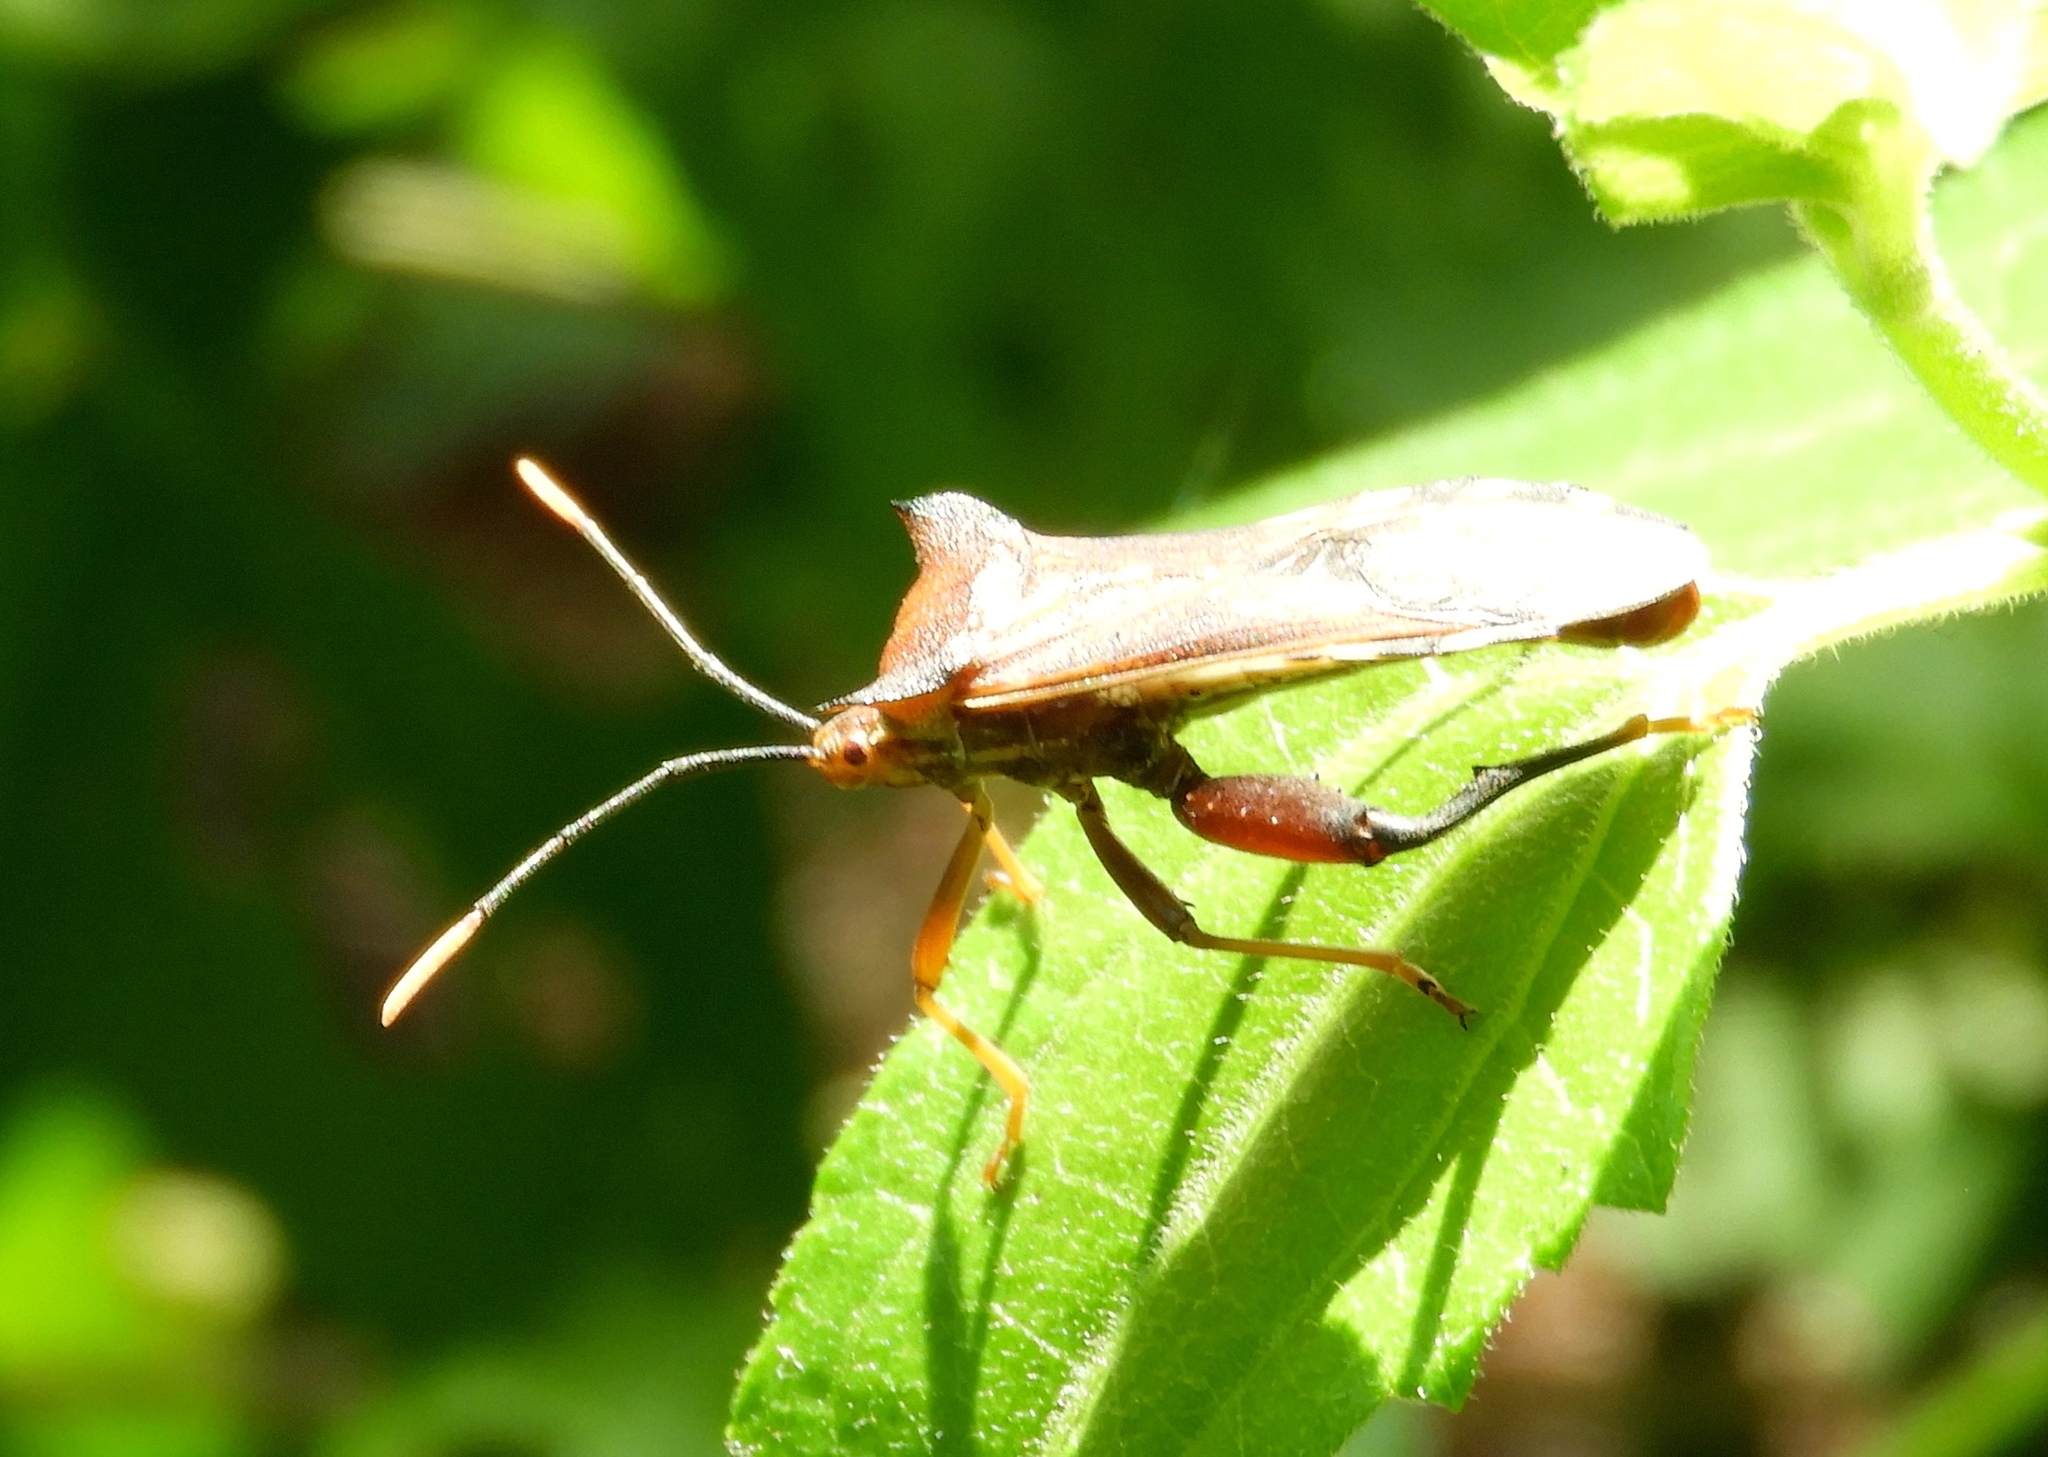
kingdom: Animalia
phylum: Arthropoda
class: Insecta
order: Hemiptera
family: Coreidae
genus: Mozena
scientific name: Mozena lunata
